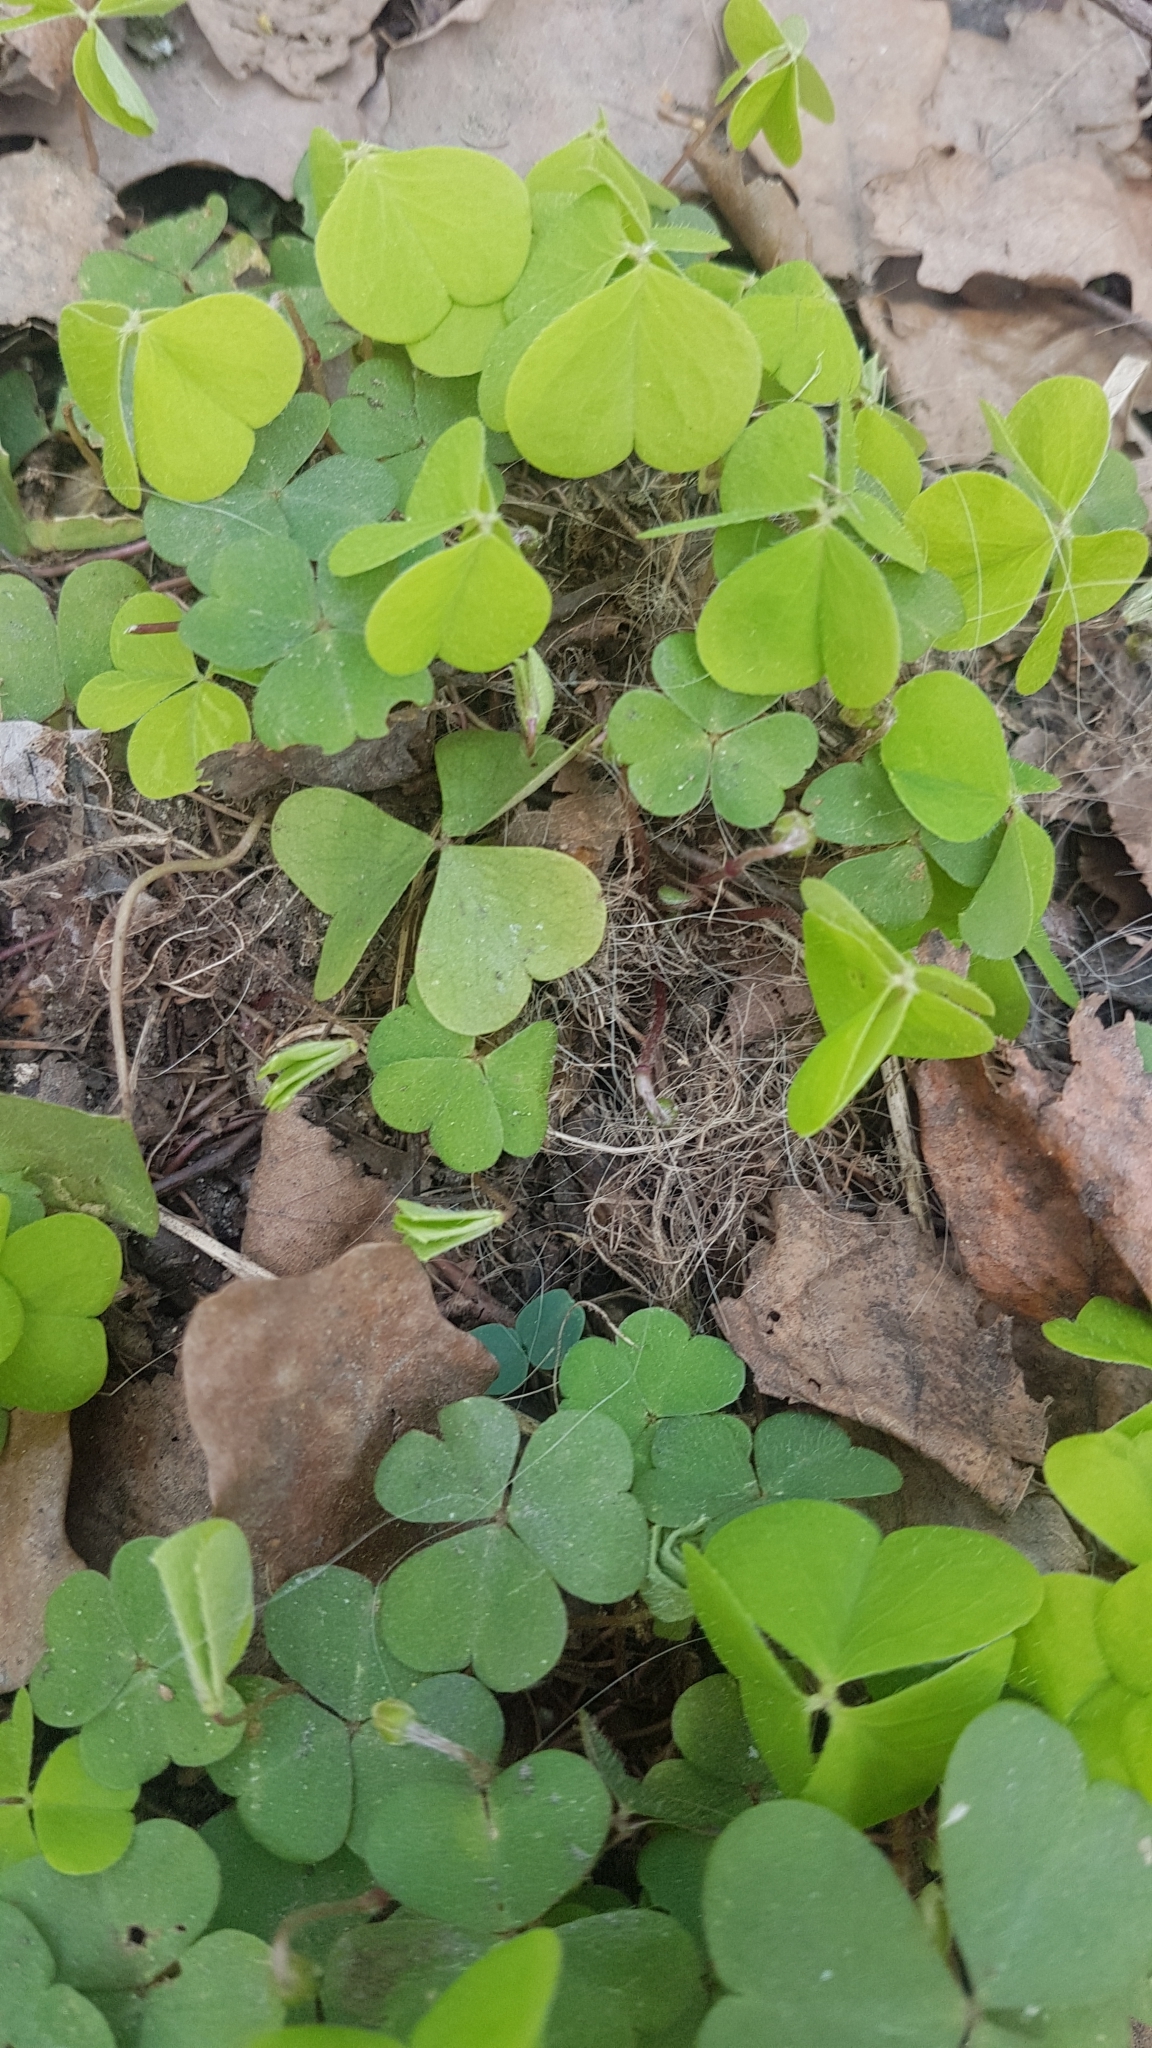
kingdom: Plantae
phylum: Tracheophyta
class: Magnoliopsida
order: Oxalidales
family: Oxalidaceae
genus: Oxalis
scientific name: Oxalis acetosella
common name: Wood-sorrel
